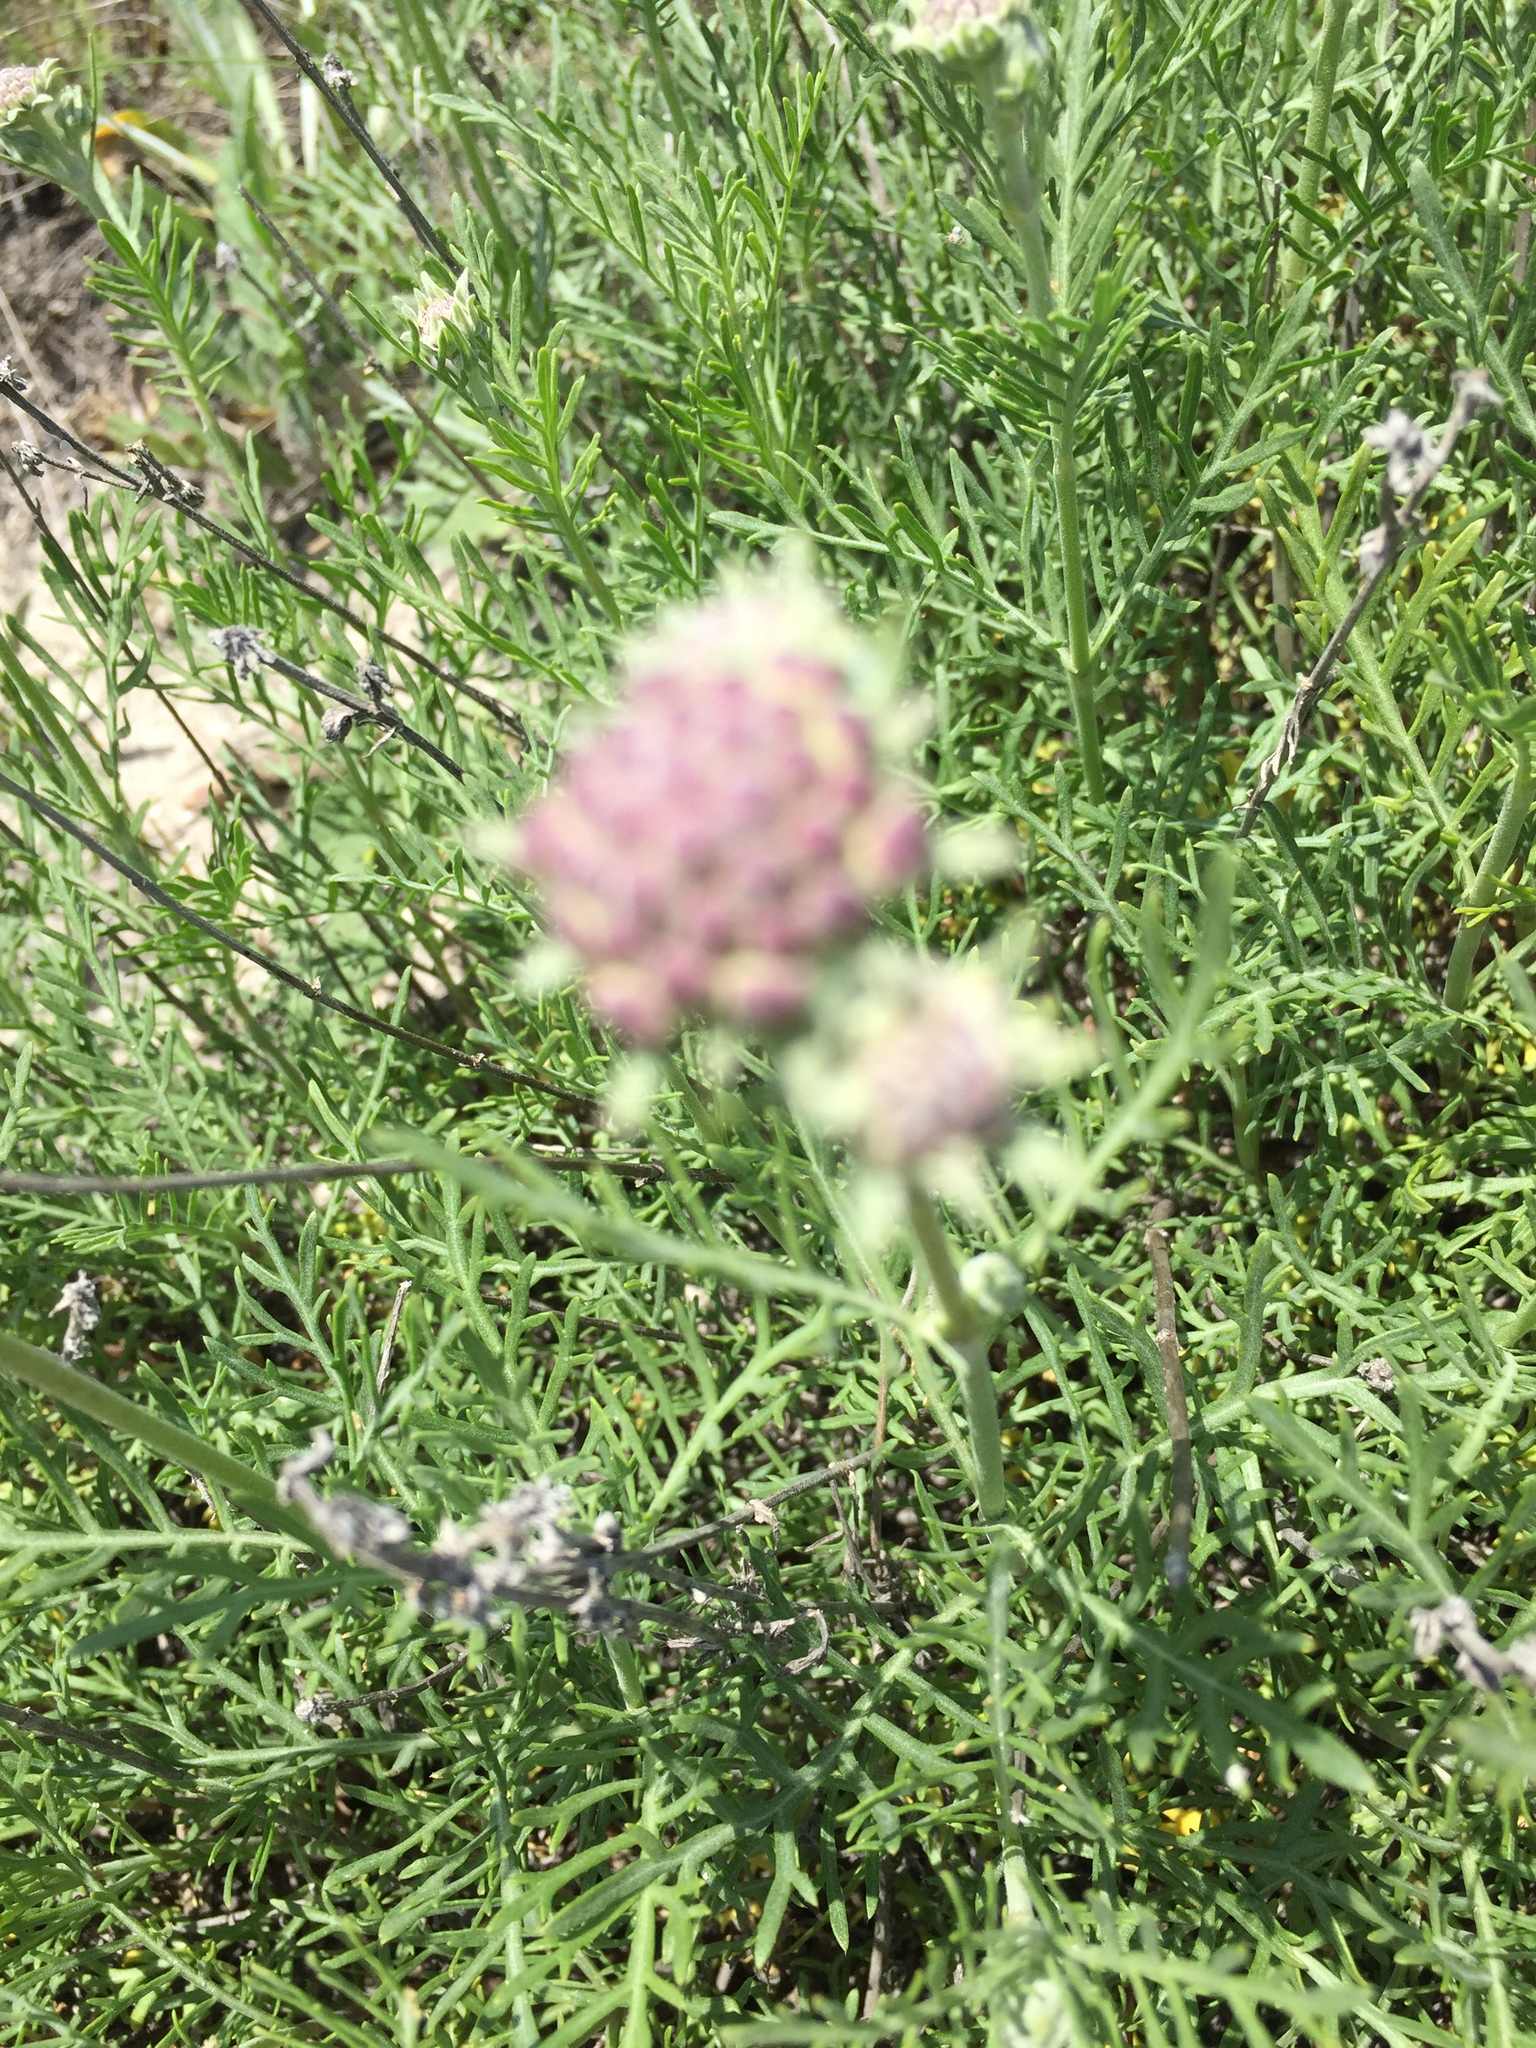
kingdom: Plantae
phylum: Tracheophyta
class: Magnoliopsida
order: Dipsacales
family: Caprifoliaceae
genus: Lomelosia
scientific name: Lomelosia isetensis
